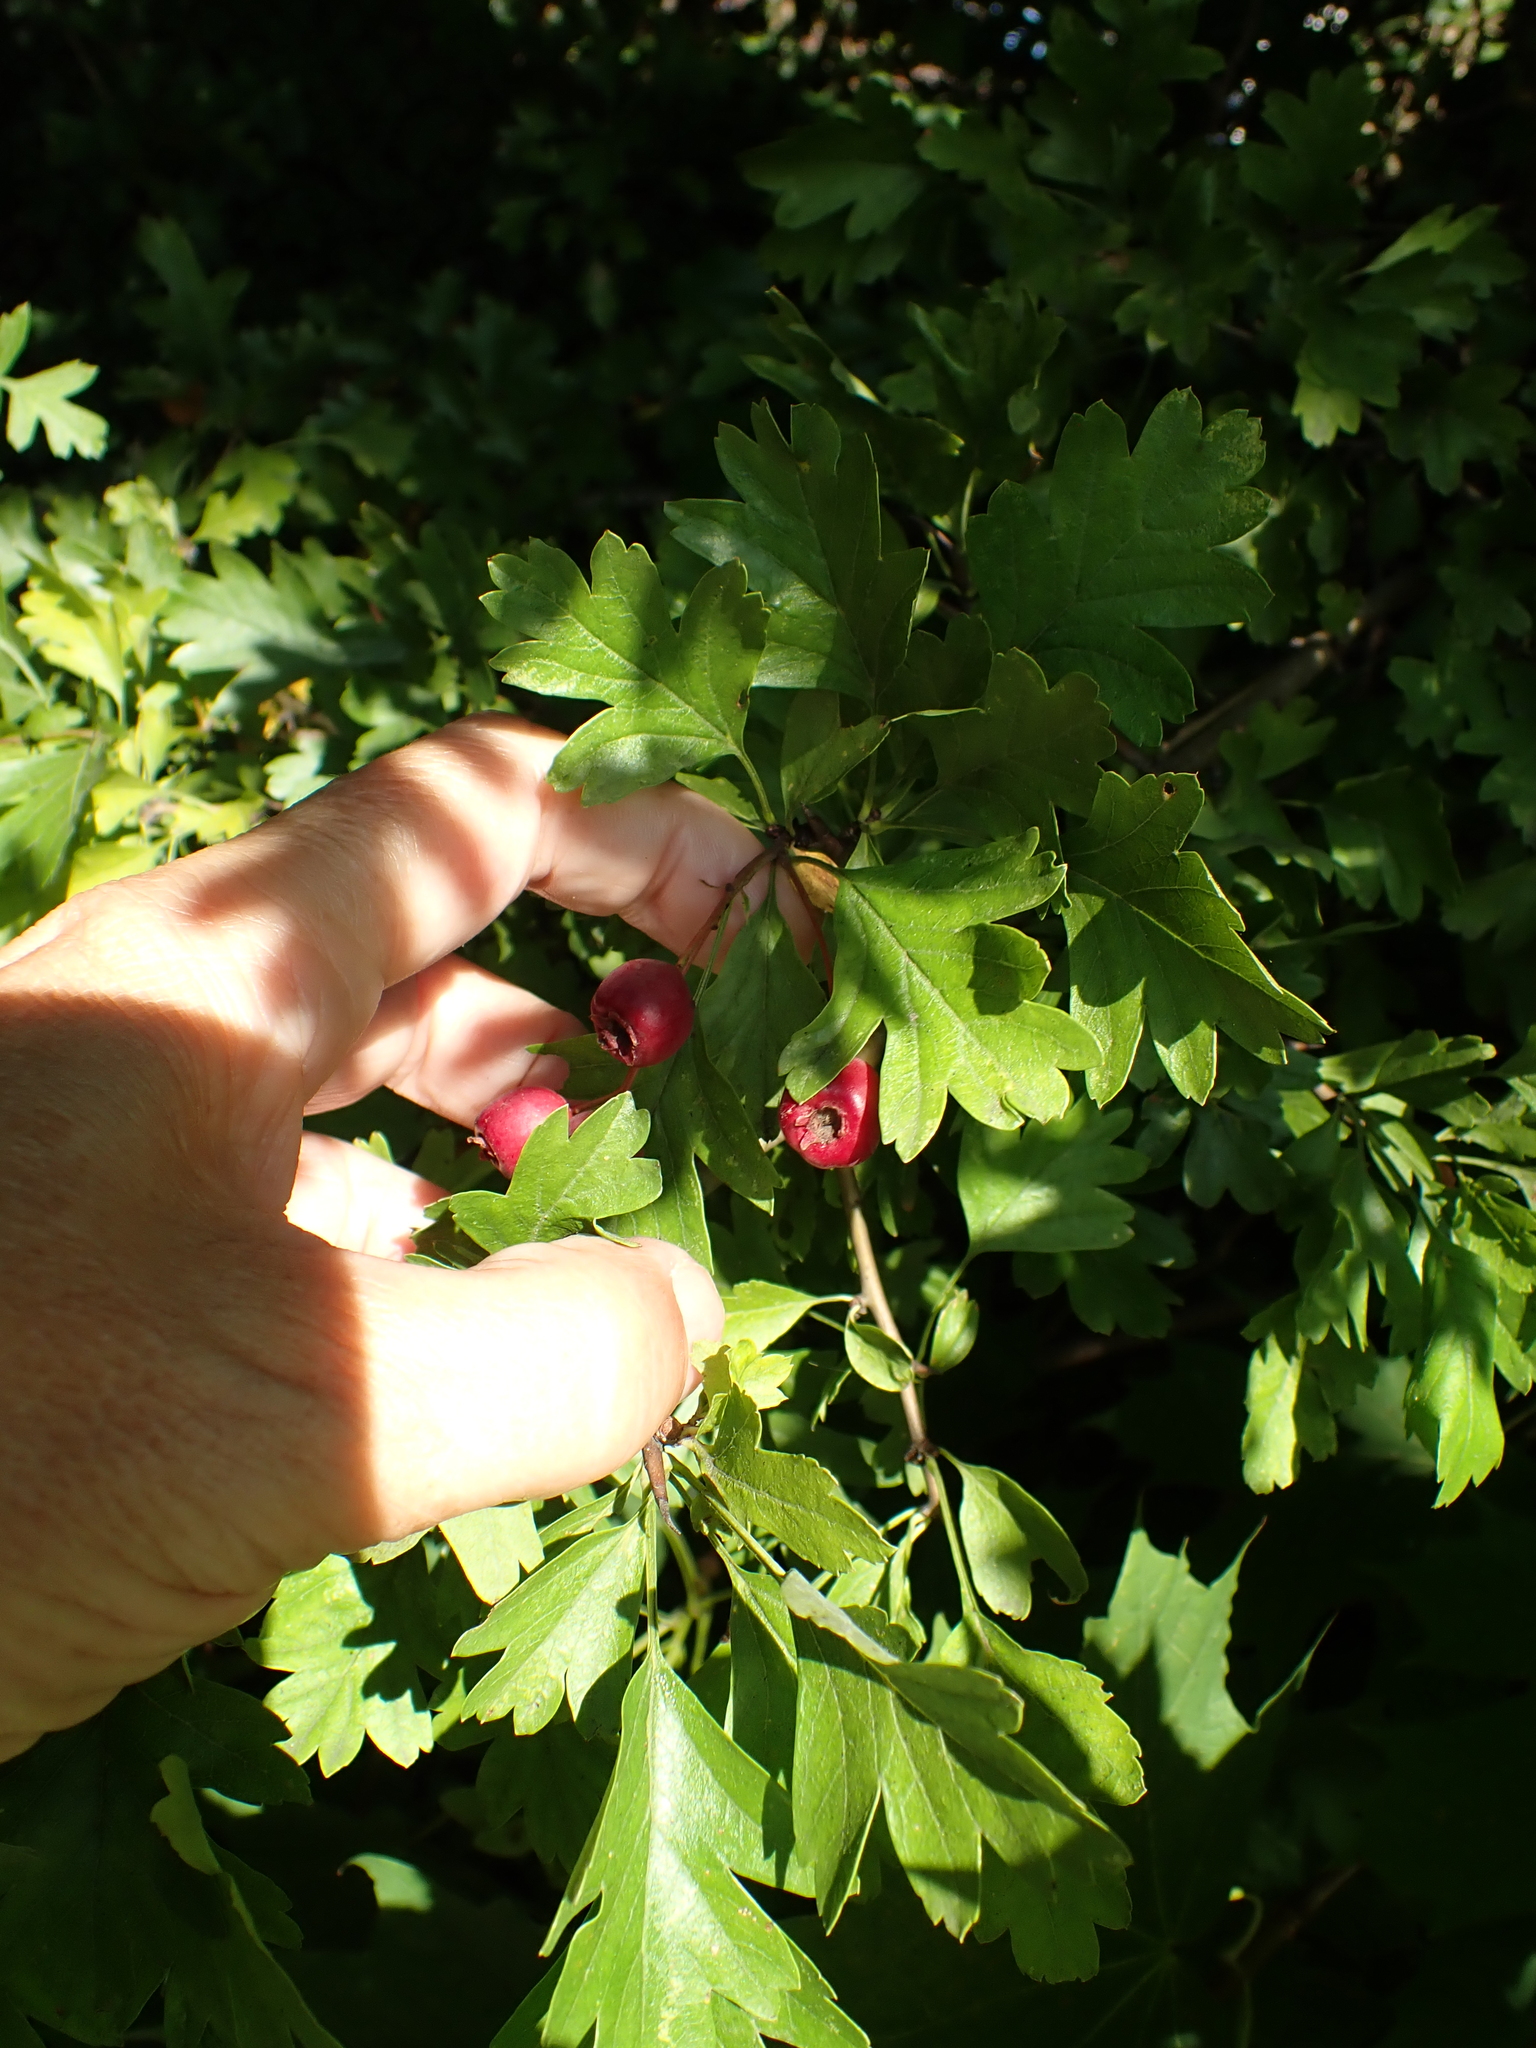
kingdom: Plantae
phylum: Tracheophyta
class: Magnoliopsida
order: Rosales
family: Rosaceae
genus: Crataegus
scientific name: Crataegus monogyna
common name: Hawthorn
